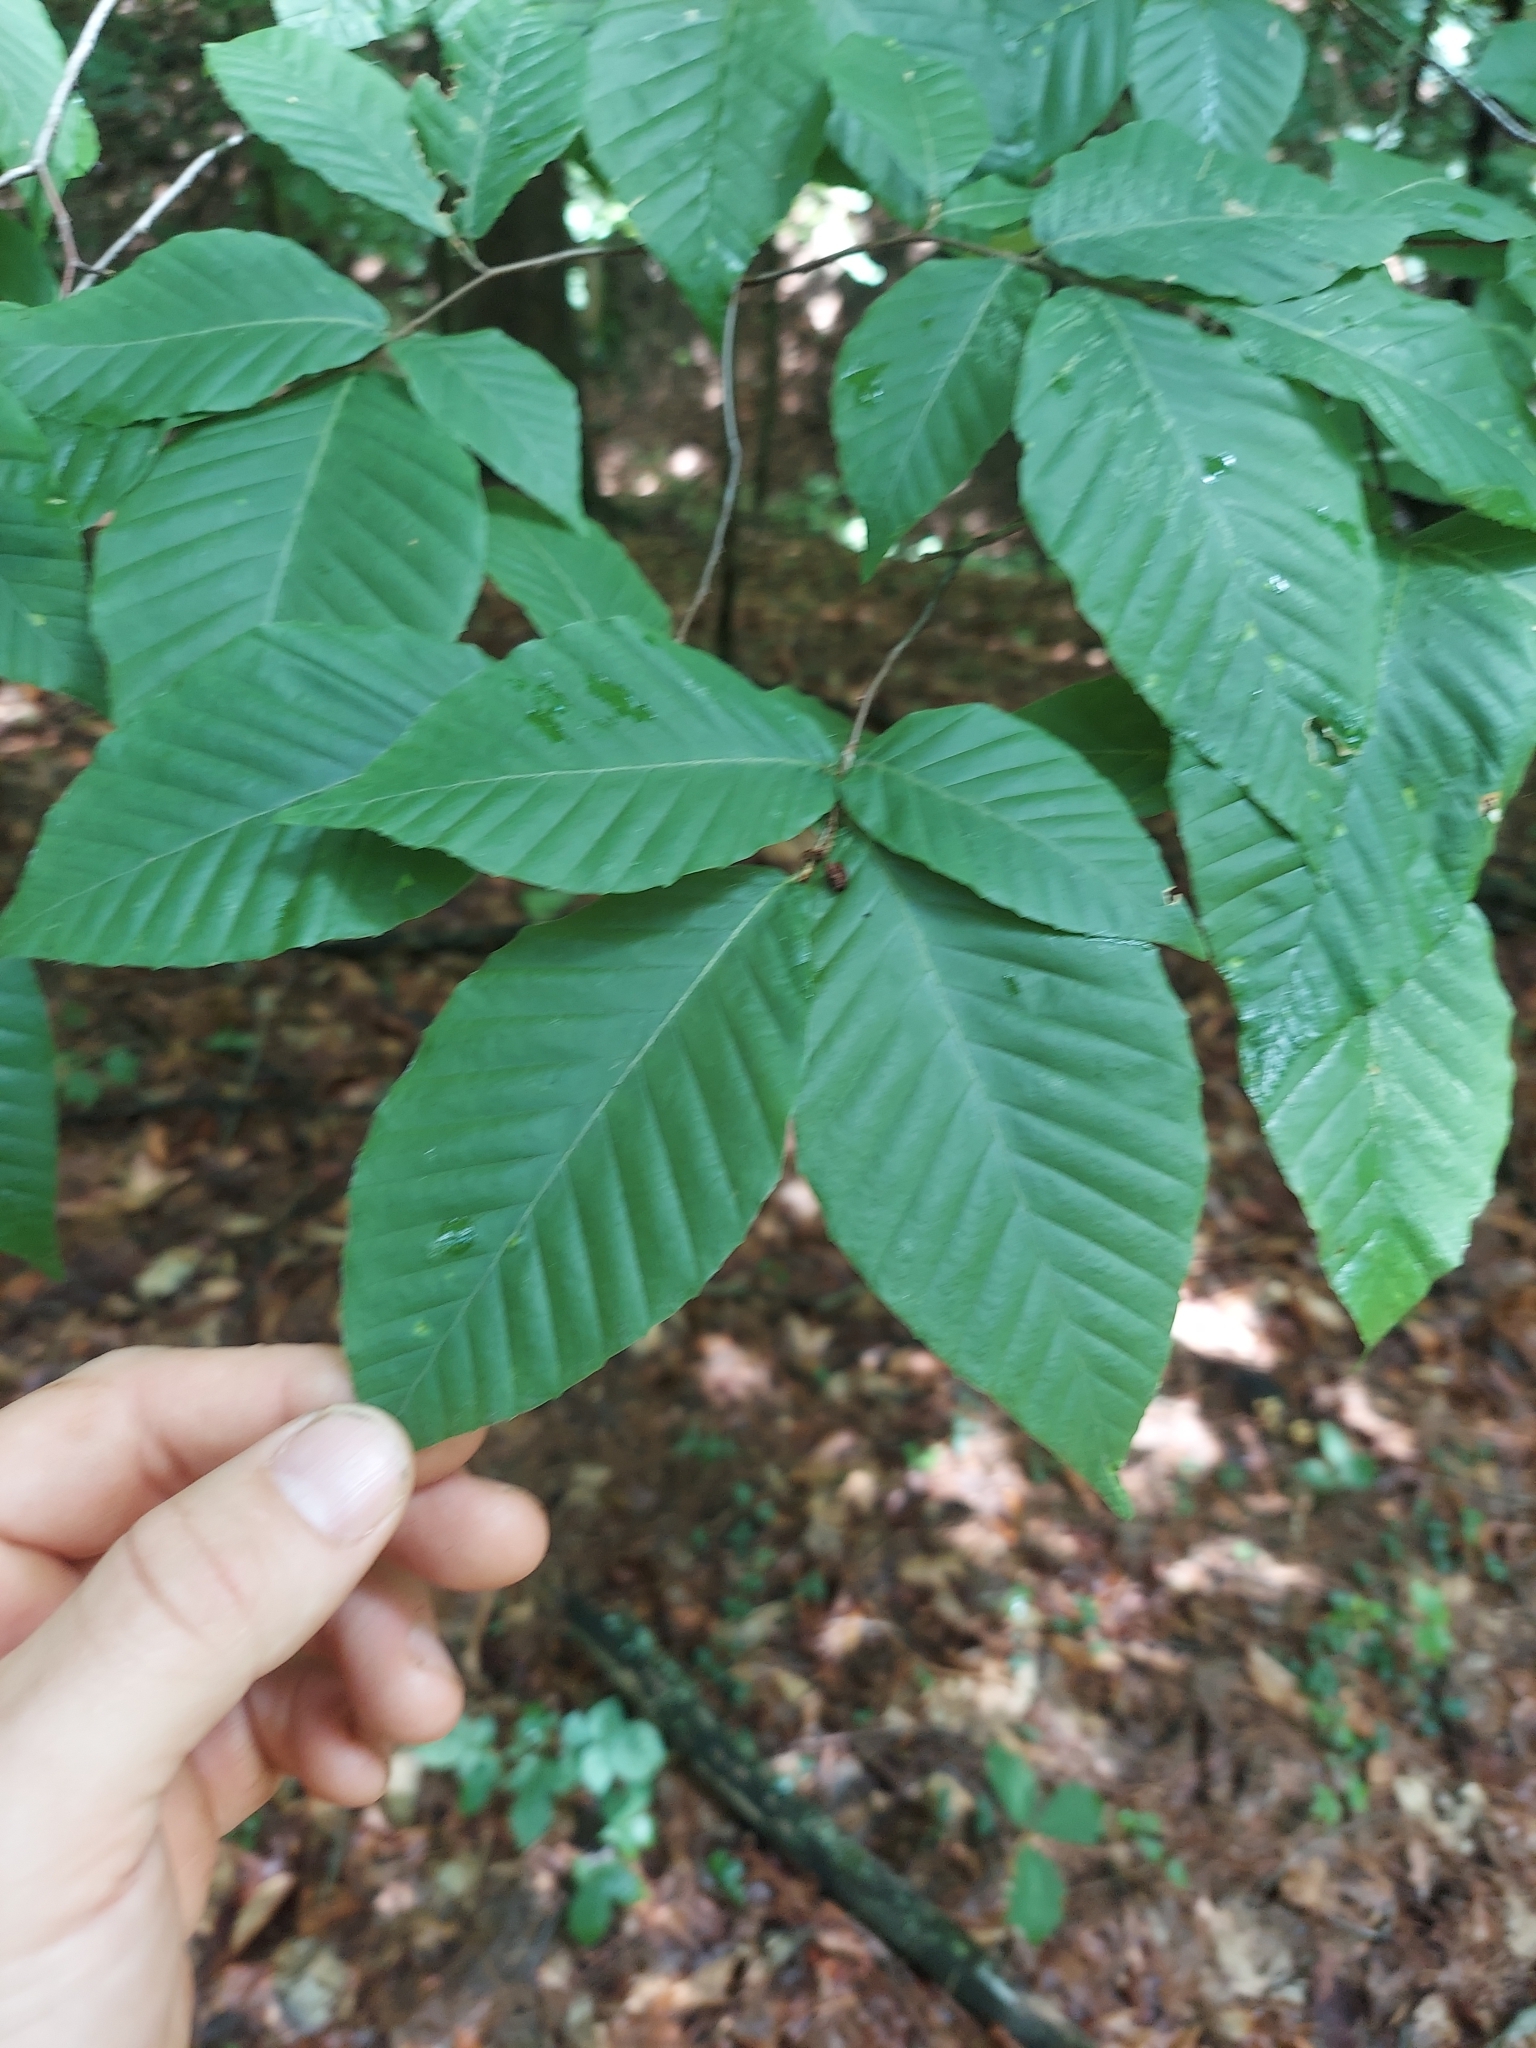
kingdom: Plantae
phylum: Tracheophyta
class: Magnoliopsida
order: Fagales
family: Fagaceae
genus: Fagus
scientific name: Fagus grandifolia
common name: American beech
